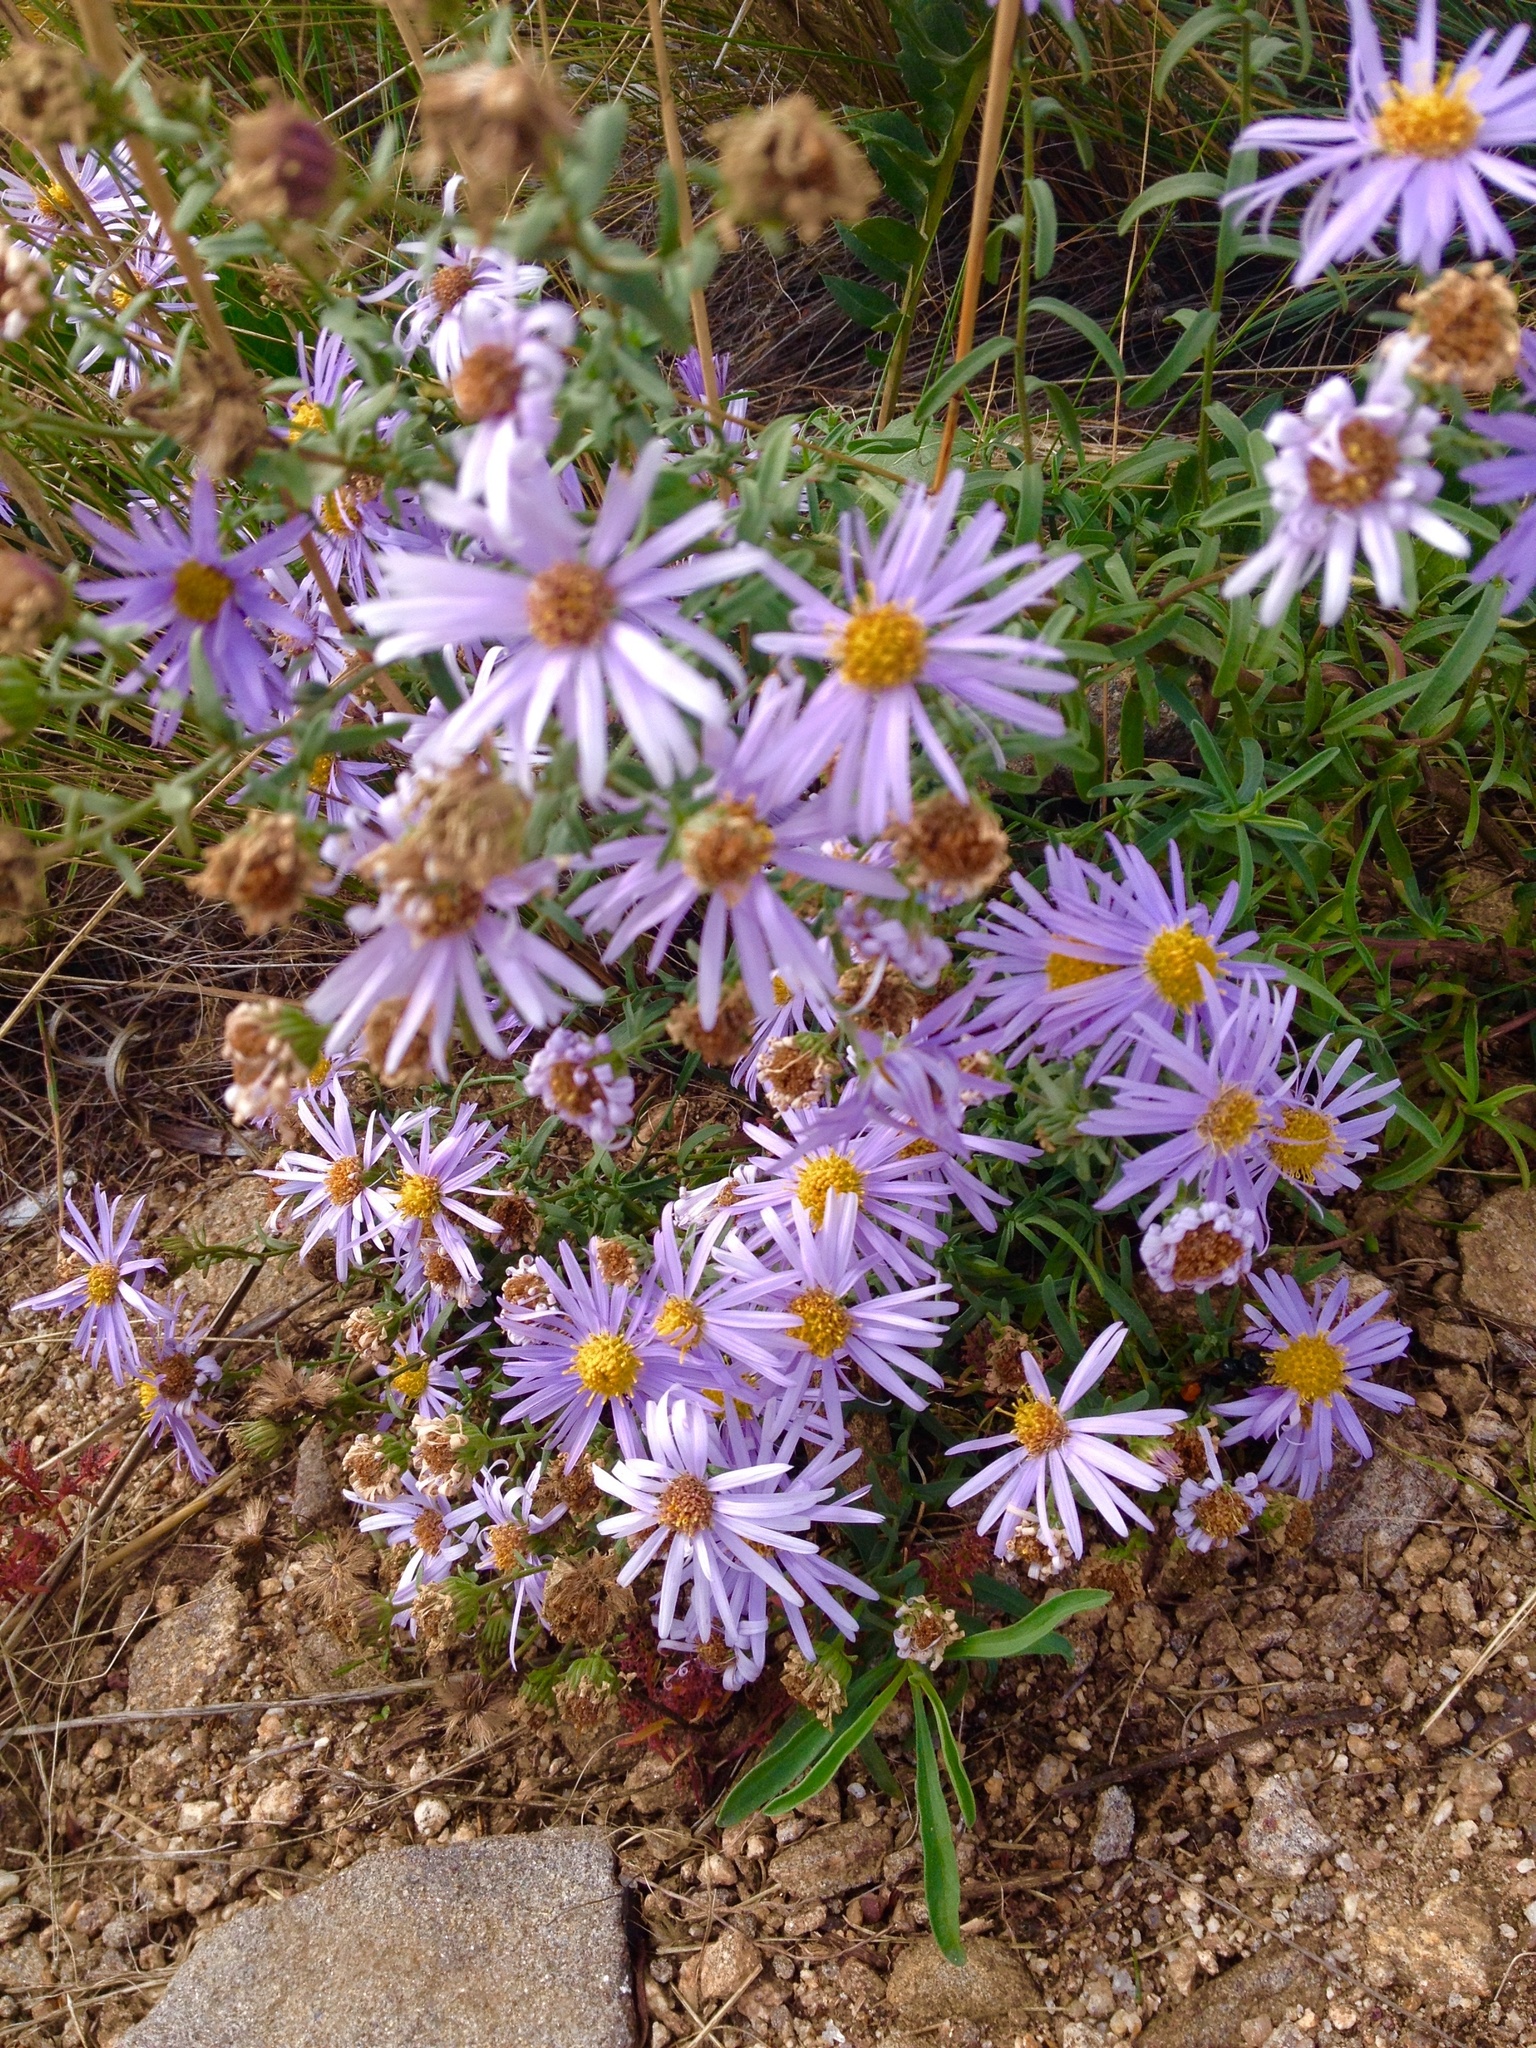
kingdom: Plantae
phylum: Tracheophyta
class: Magnoliopsida
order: Asterales
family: Asteraceae
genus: Heteropappus
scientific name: Heteropappus altaicus
